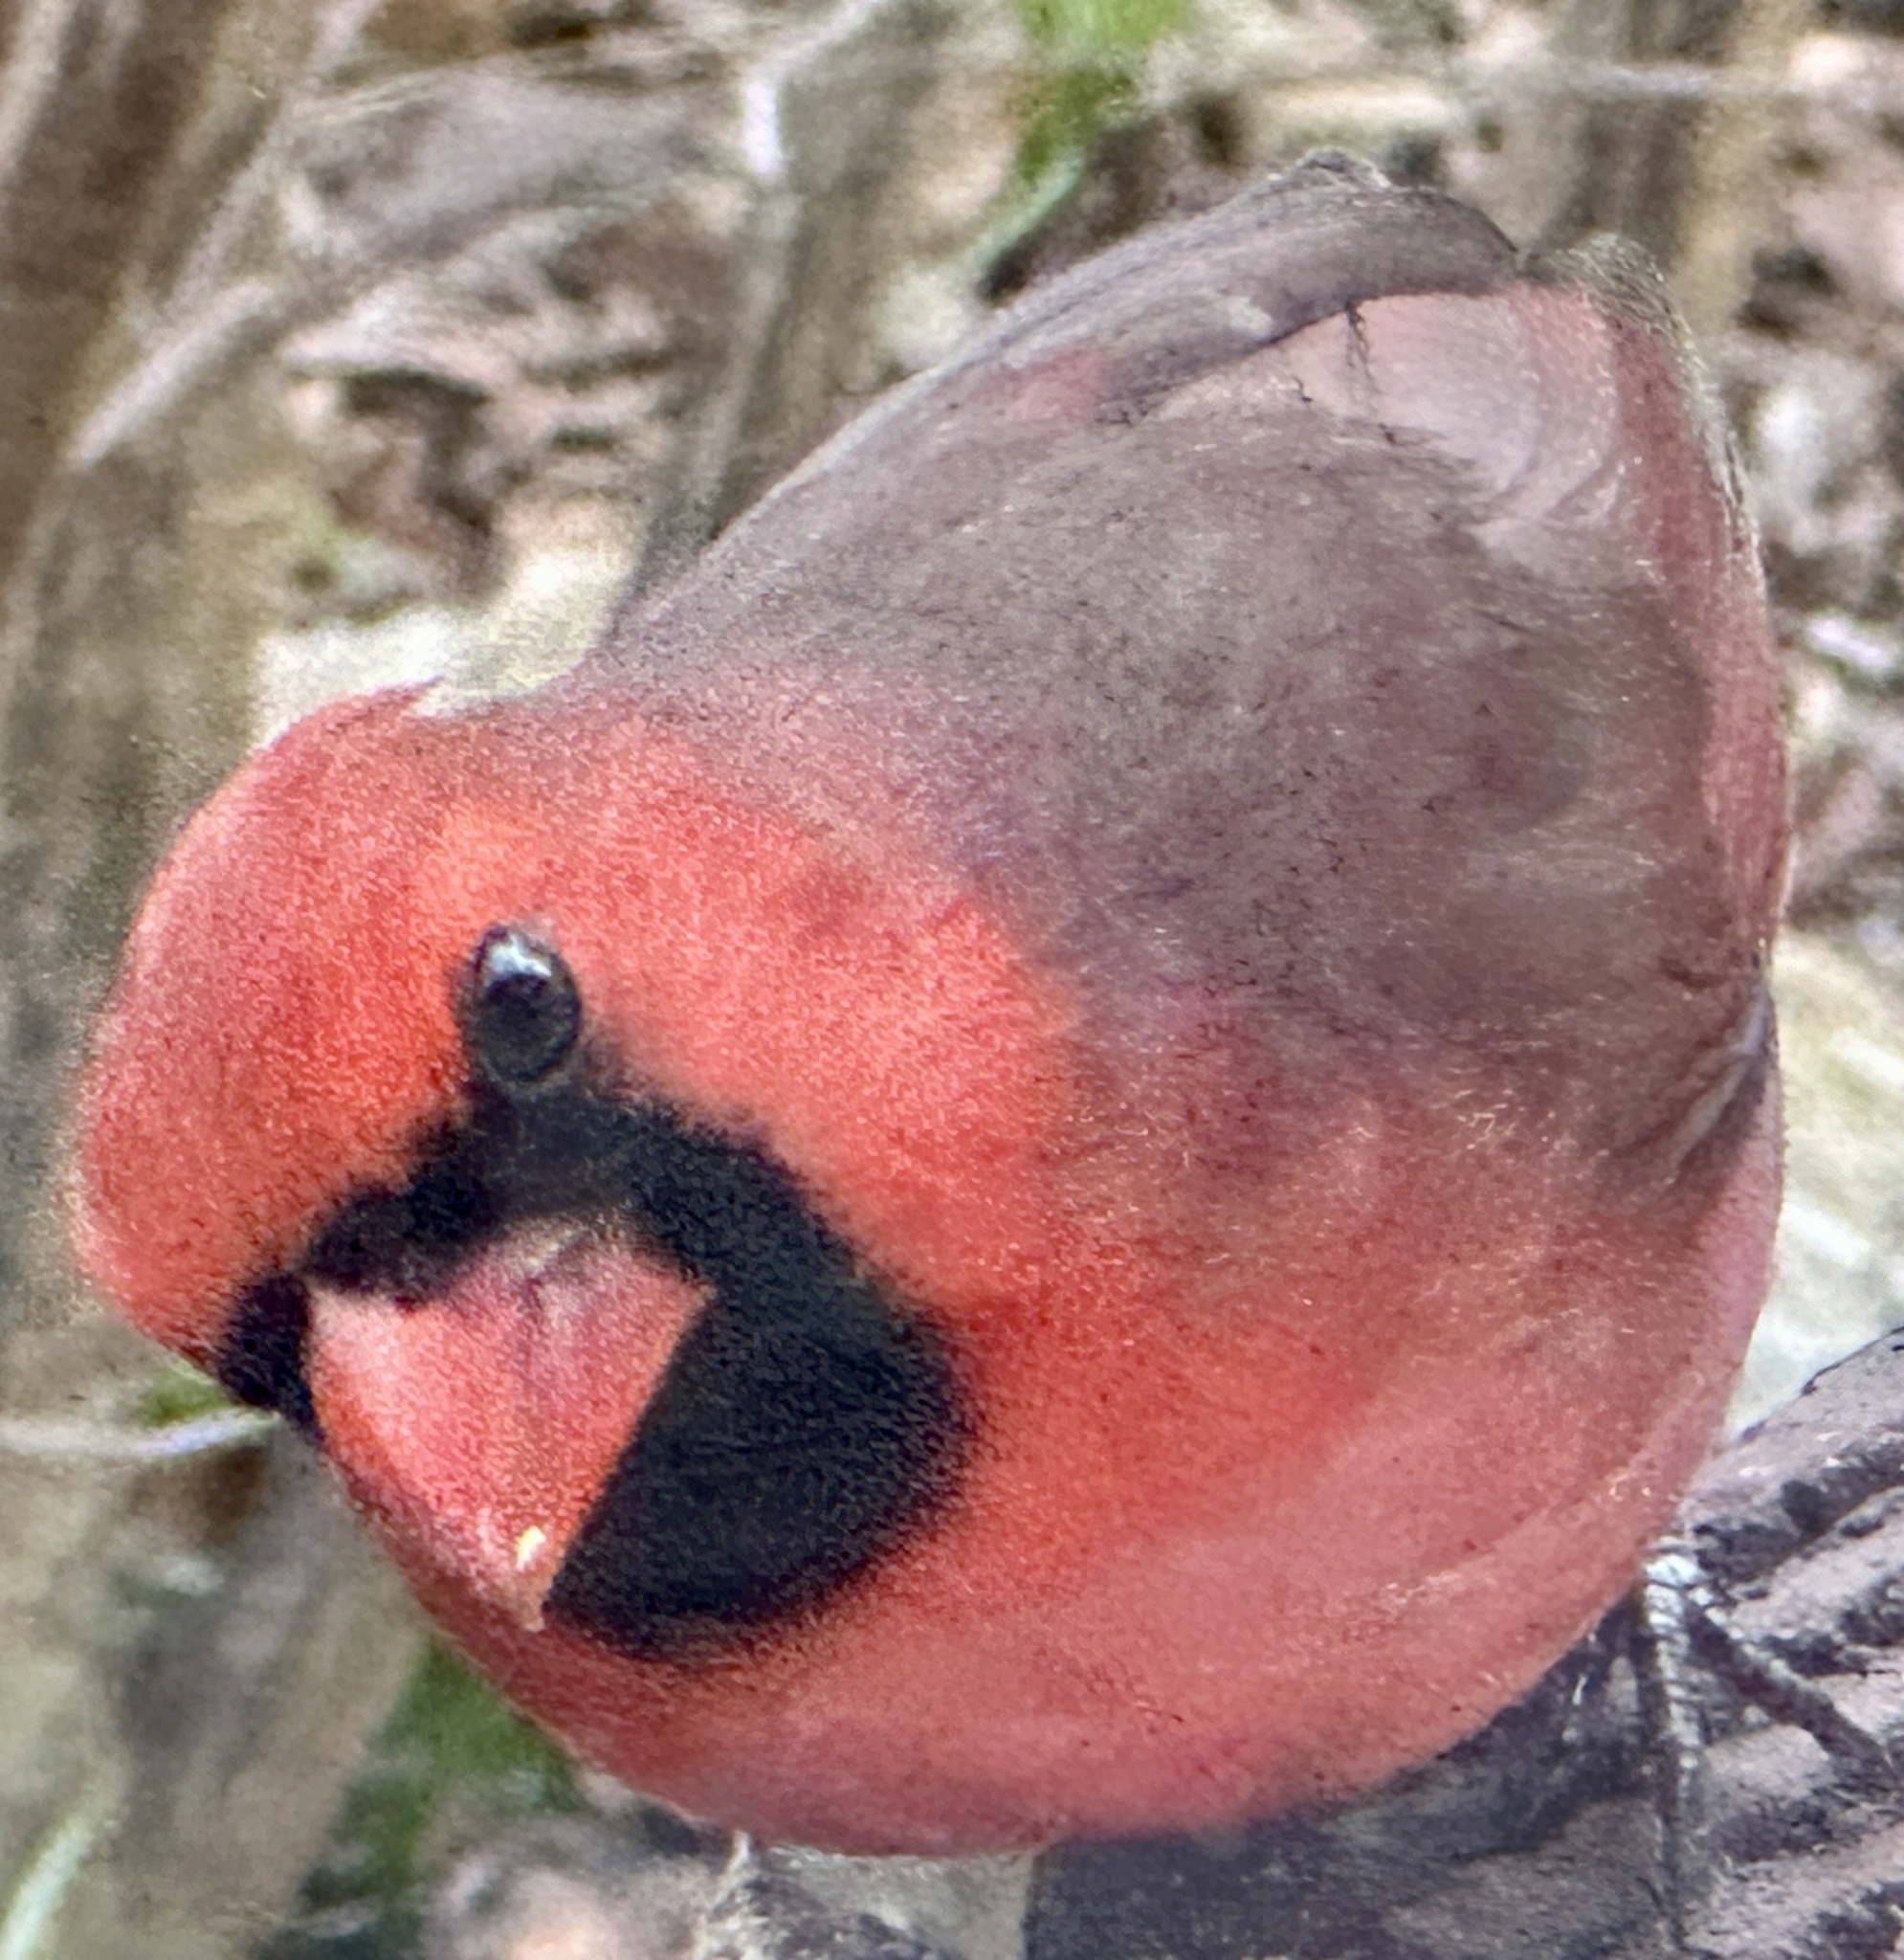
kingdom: Animalia
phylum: Chordata
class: Aves
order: Passeriformes
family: Cardinalidae
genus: Cardinalis
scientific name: Cardinalis cardinalis
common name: Northern cardinal
